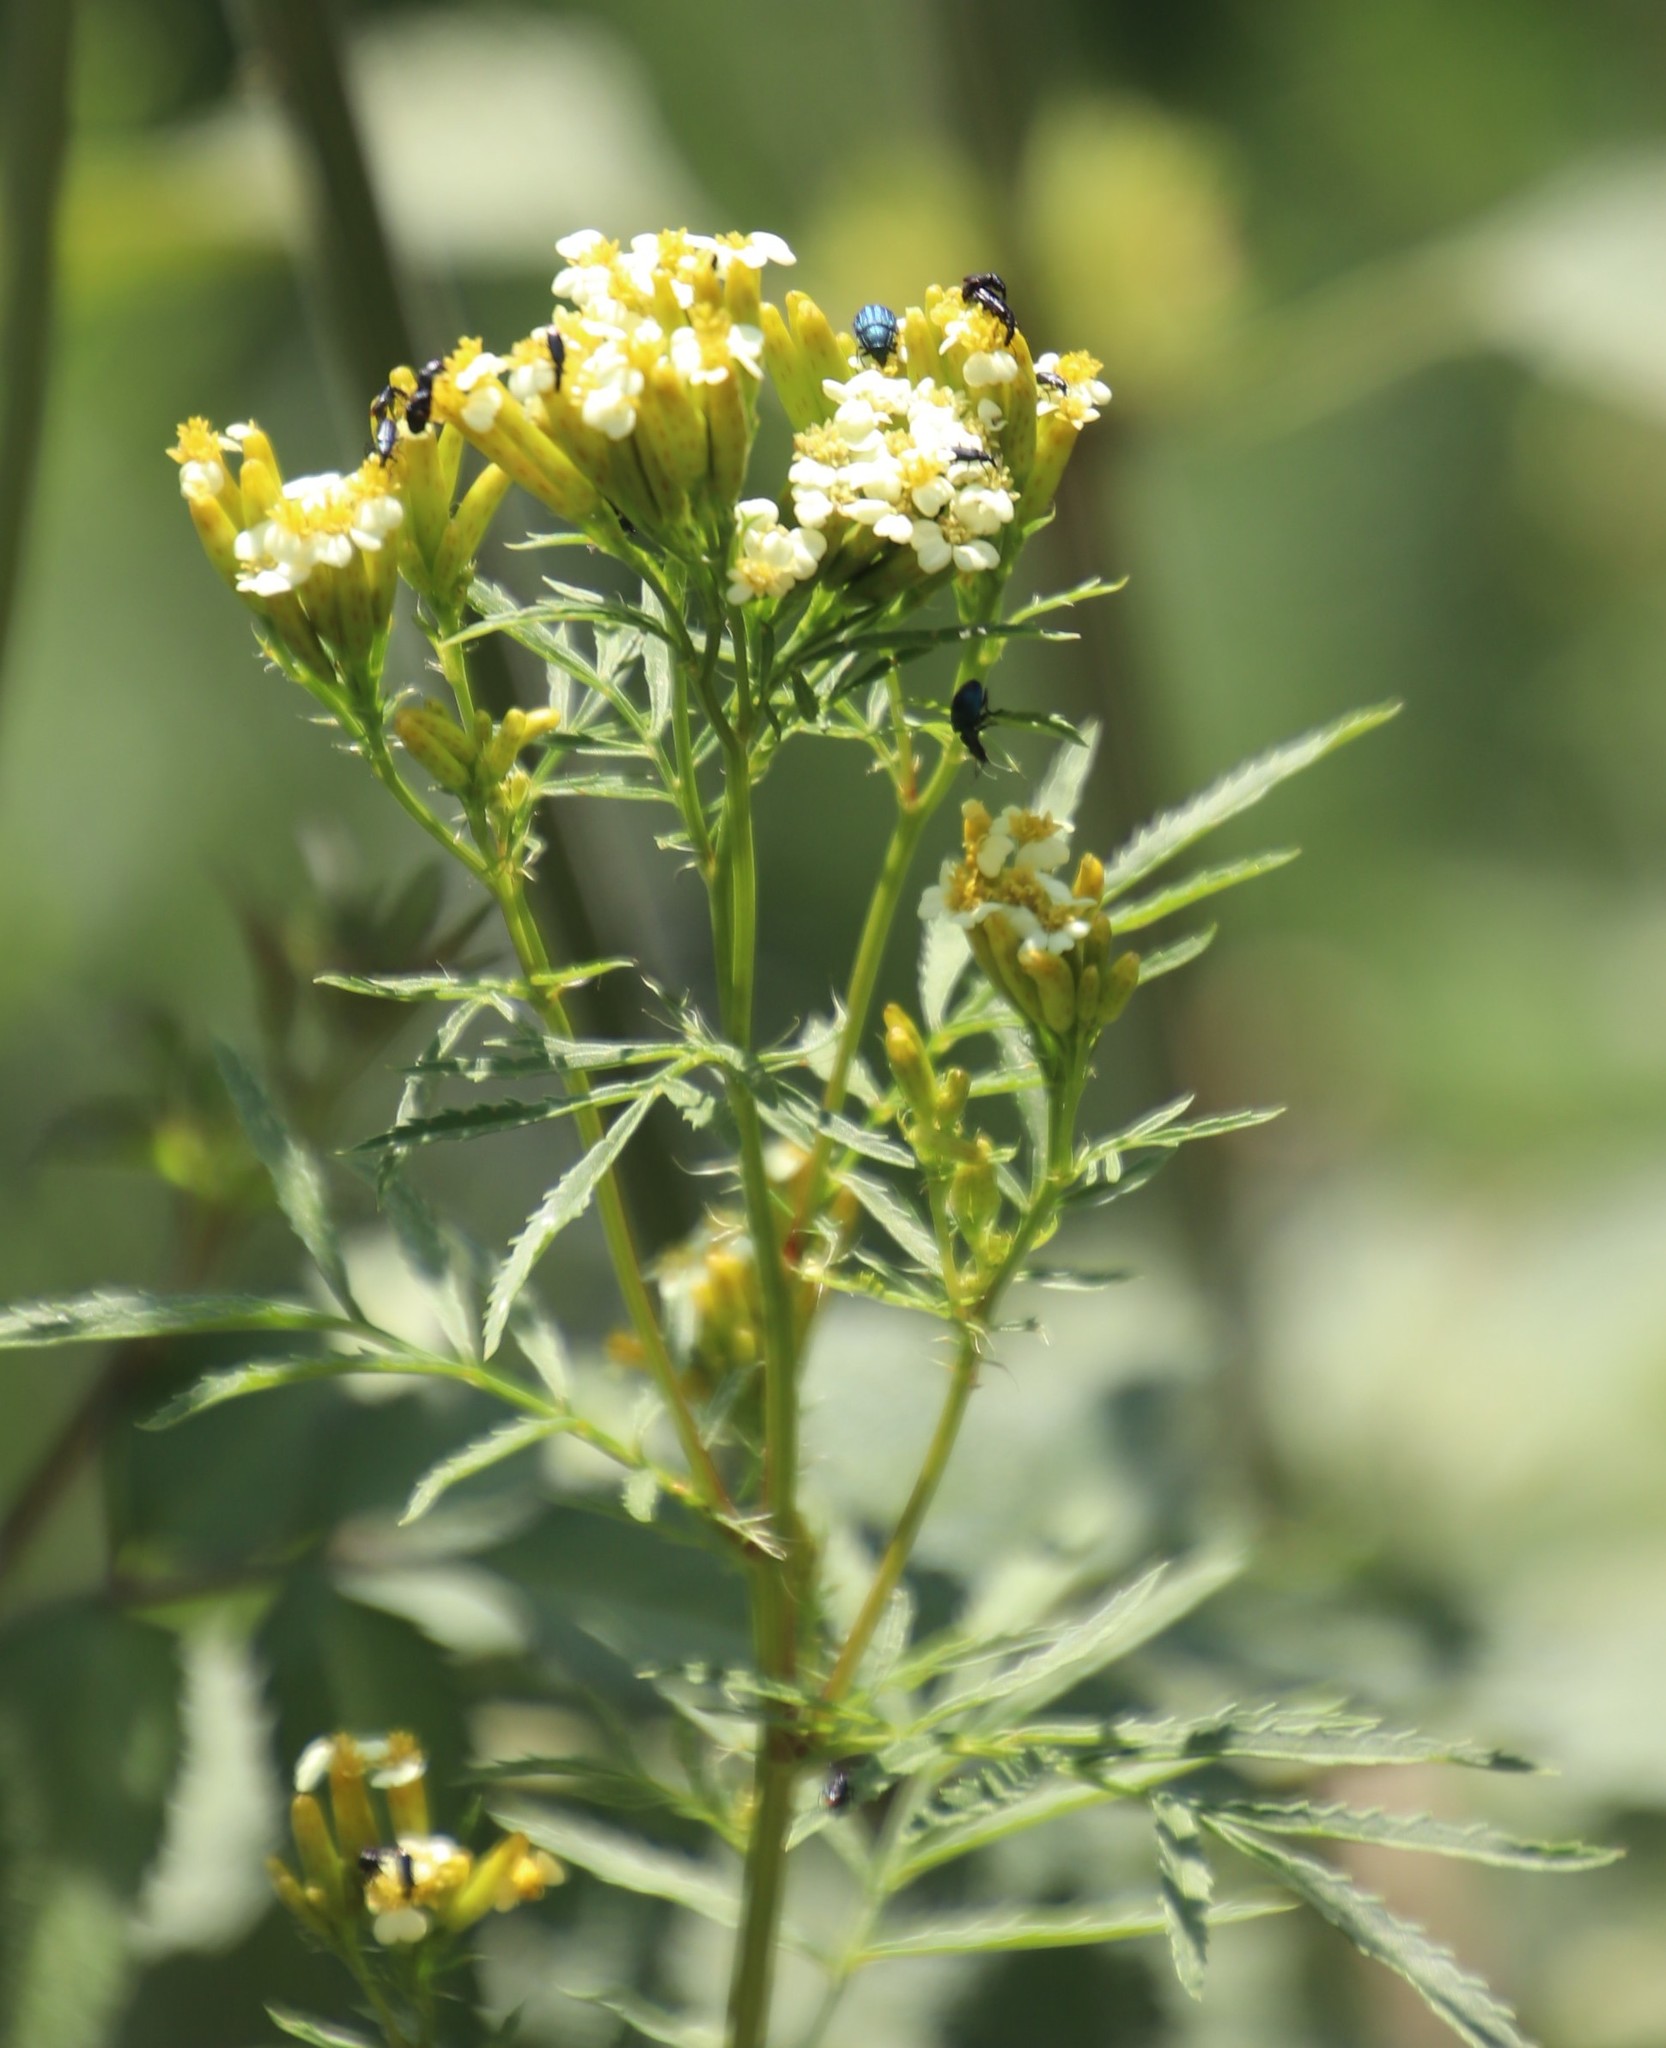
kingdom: Plantae
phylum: Tracheophyta
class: Magnoliopsida
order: Asterales
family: Asteraceae
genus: Tagetes
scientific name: Tagetes minuta
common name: Muster john henry
